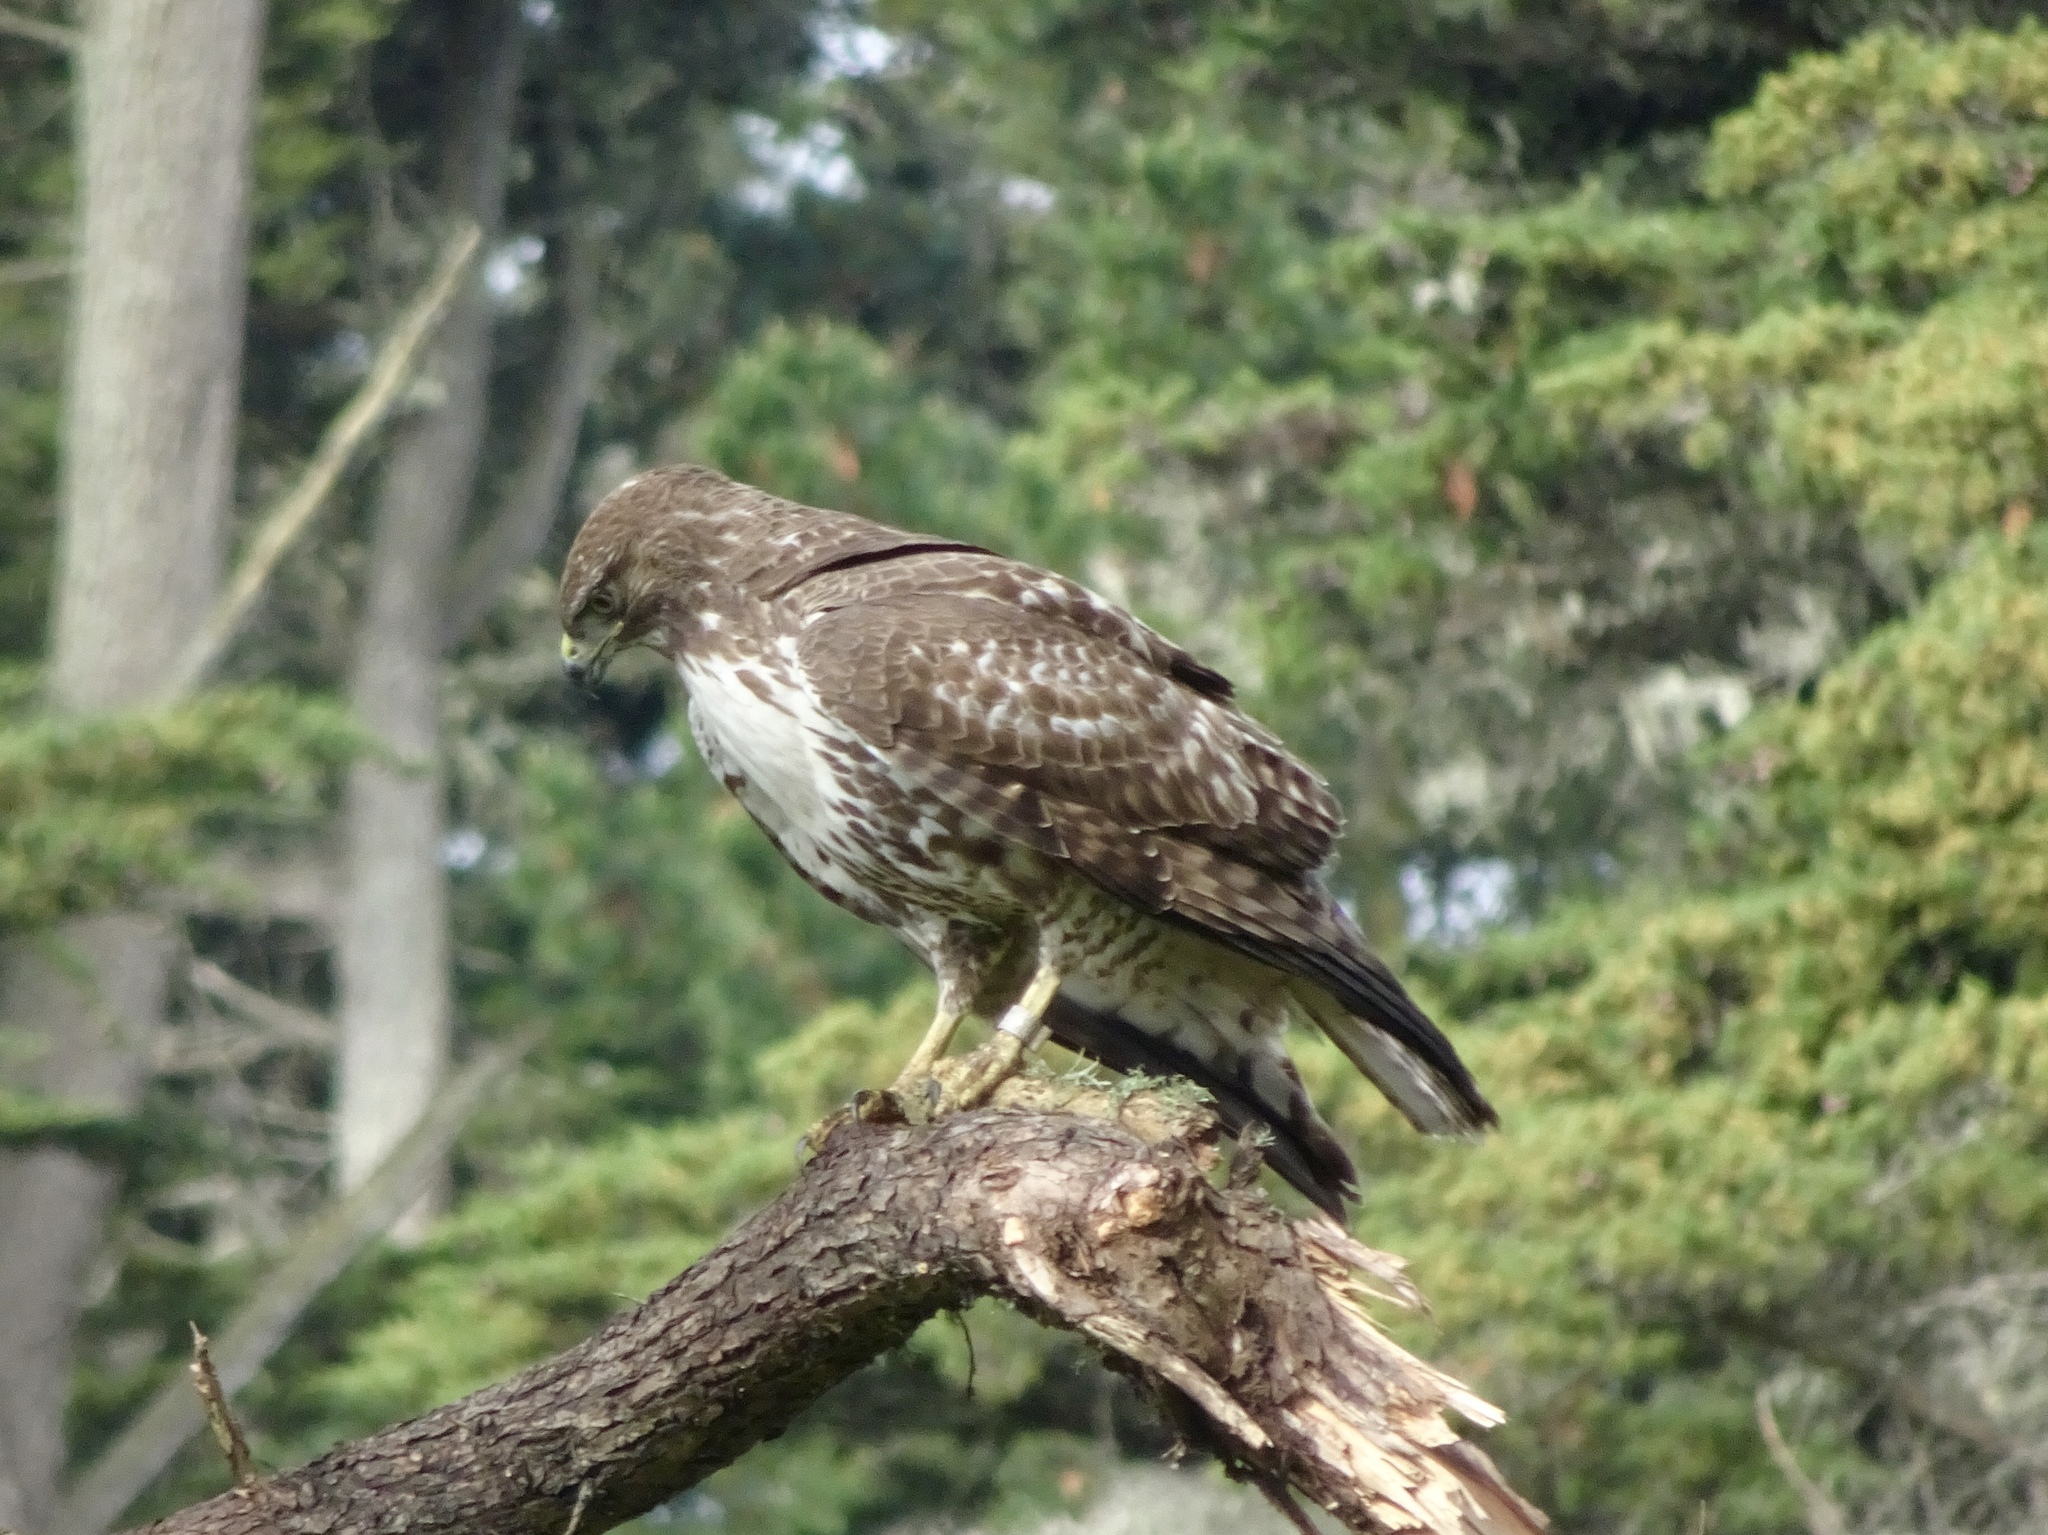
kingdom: Animalia
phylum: Chordata
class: Aves
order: Accipitriformes
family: Accipitridae
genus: Buteo
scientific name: Buteo jamaicensis
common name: Red-tailed hawk
